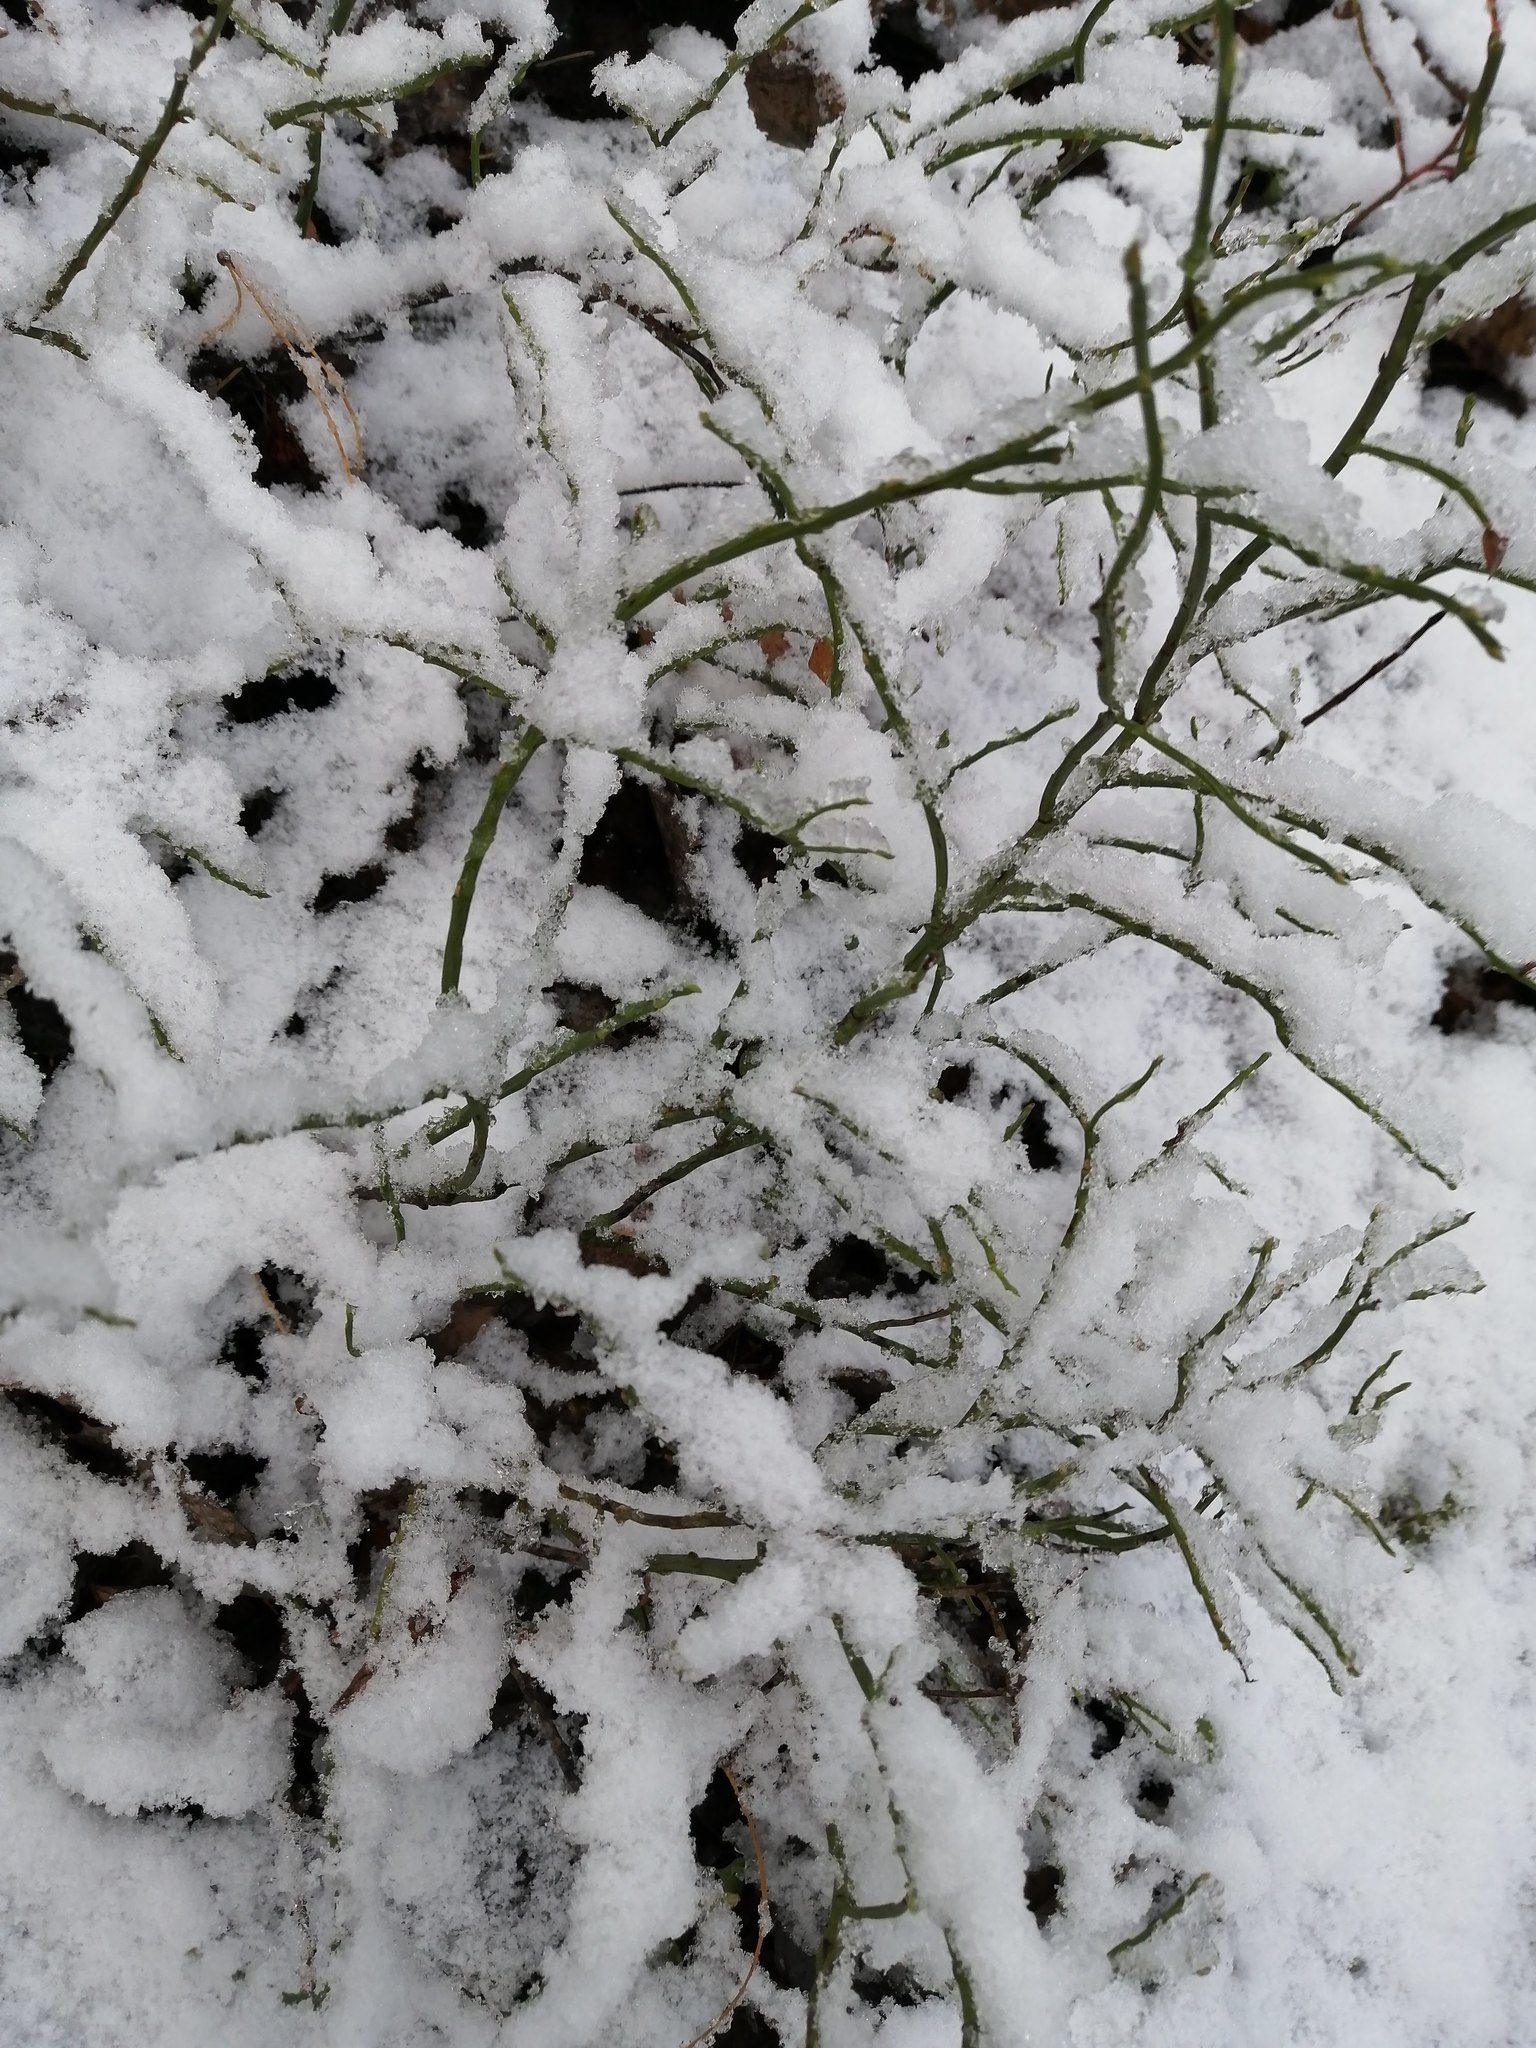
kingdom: Plantae
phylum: Tracheophyta
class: Magnoliopsida
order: Ericales
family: Ericaceae
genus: Vaccinium
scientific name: Vaccinium myrtillus
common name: Bilberry
